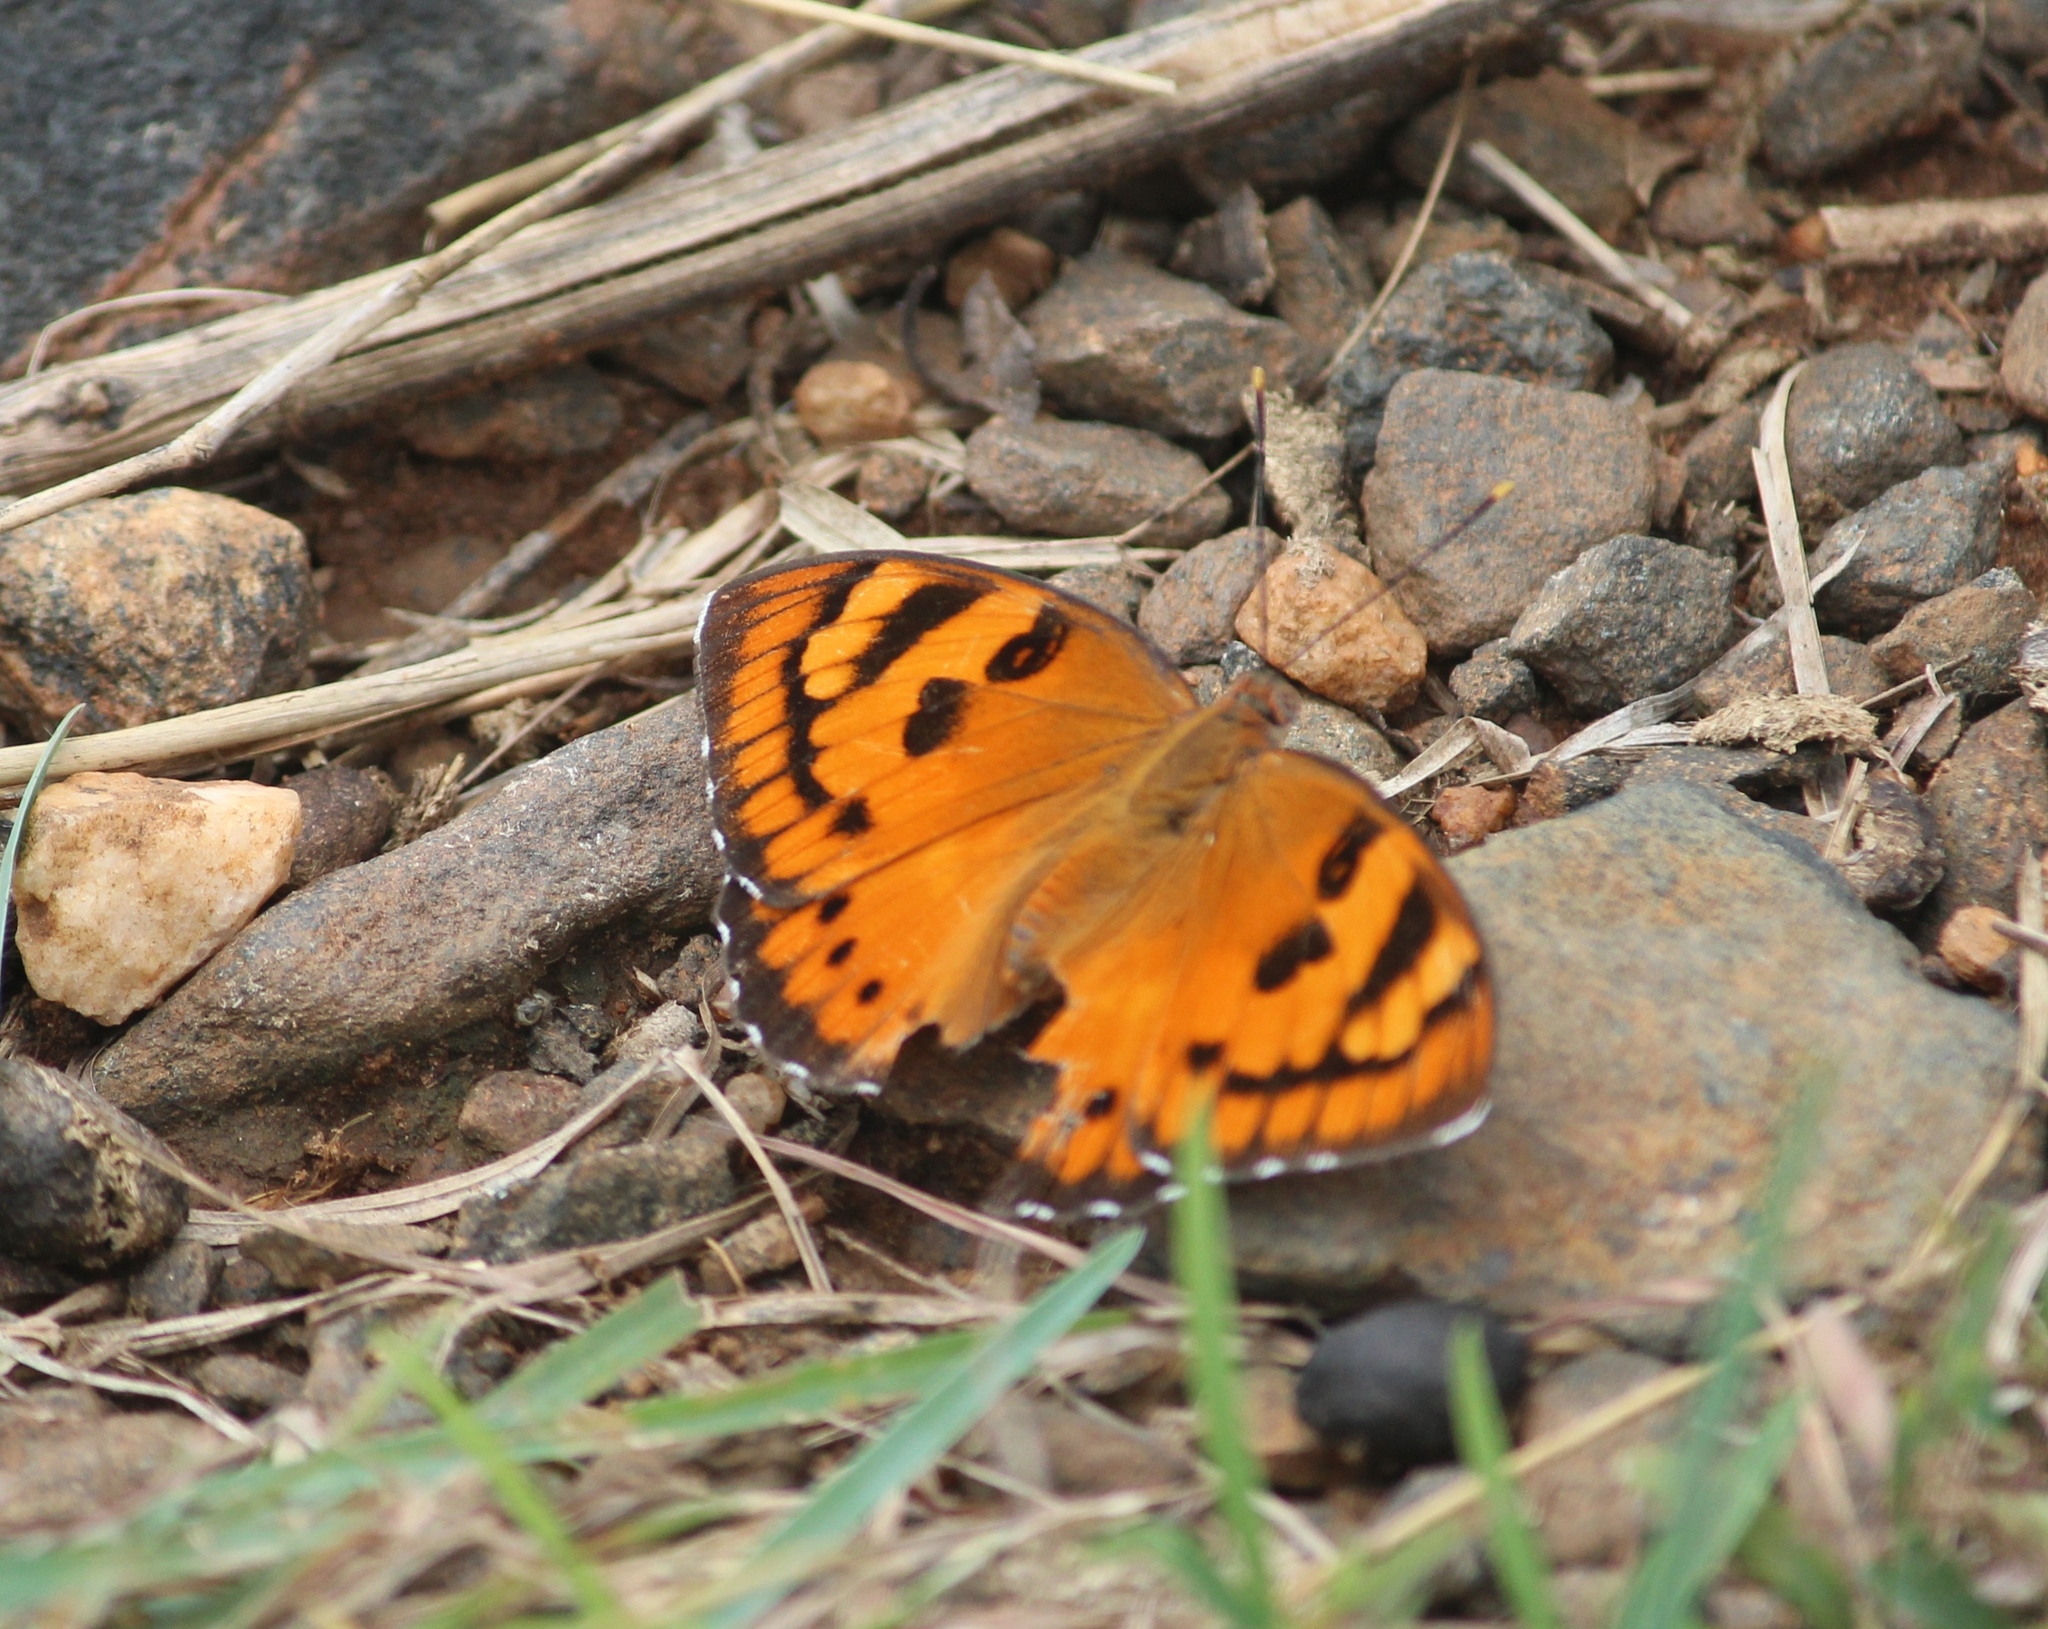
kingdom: Animalia
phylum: Arthropoda
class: Insecta
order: Lepidoptera
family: Nymphalidae
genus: Euthalia
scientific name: Euthalia nais
